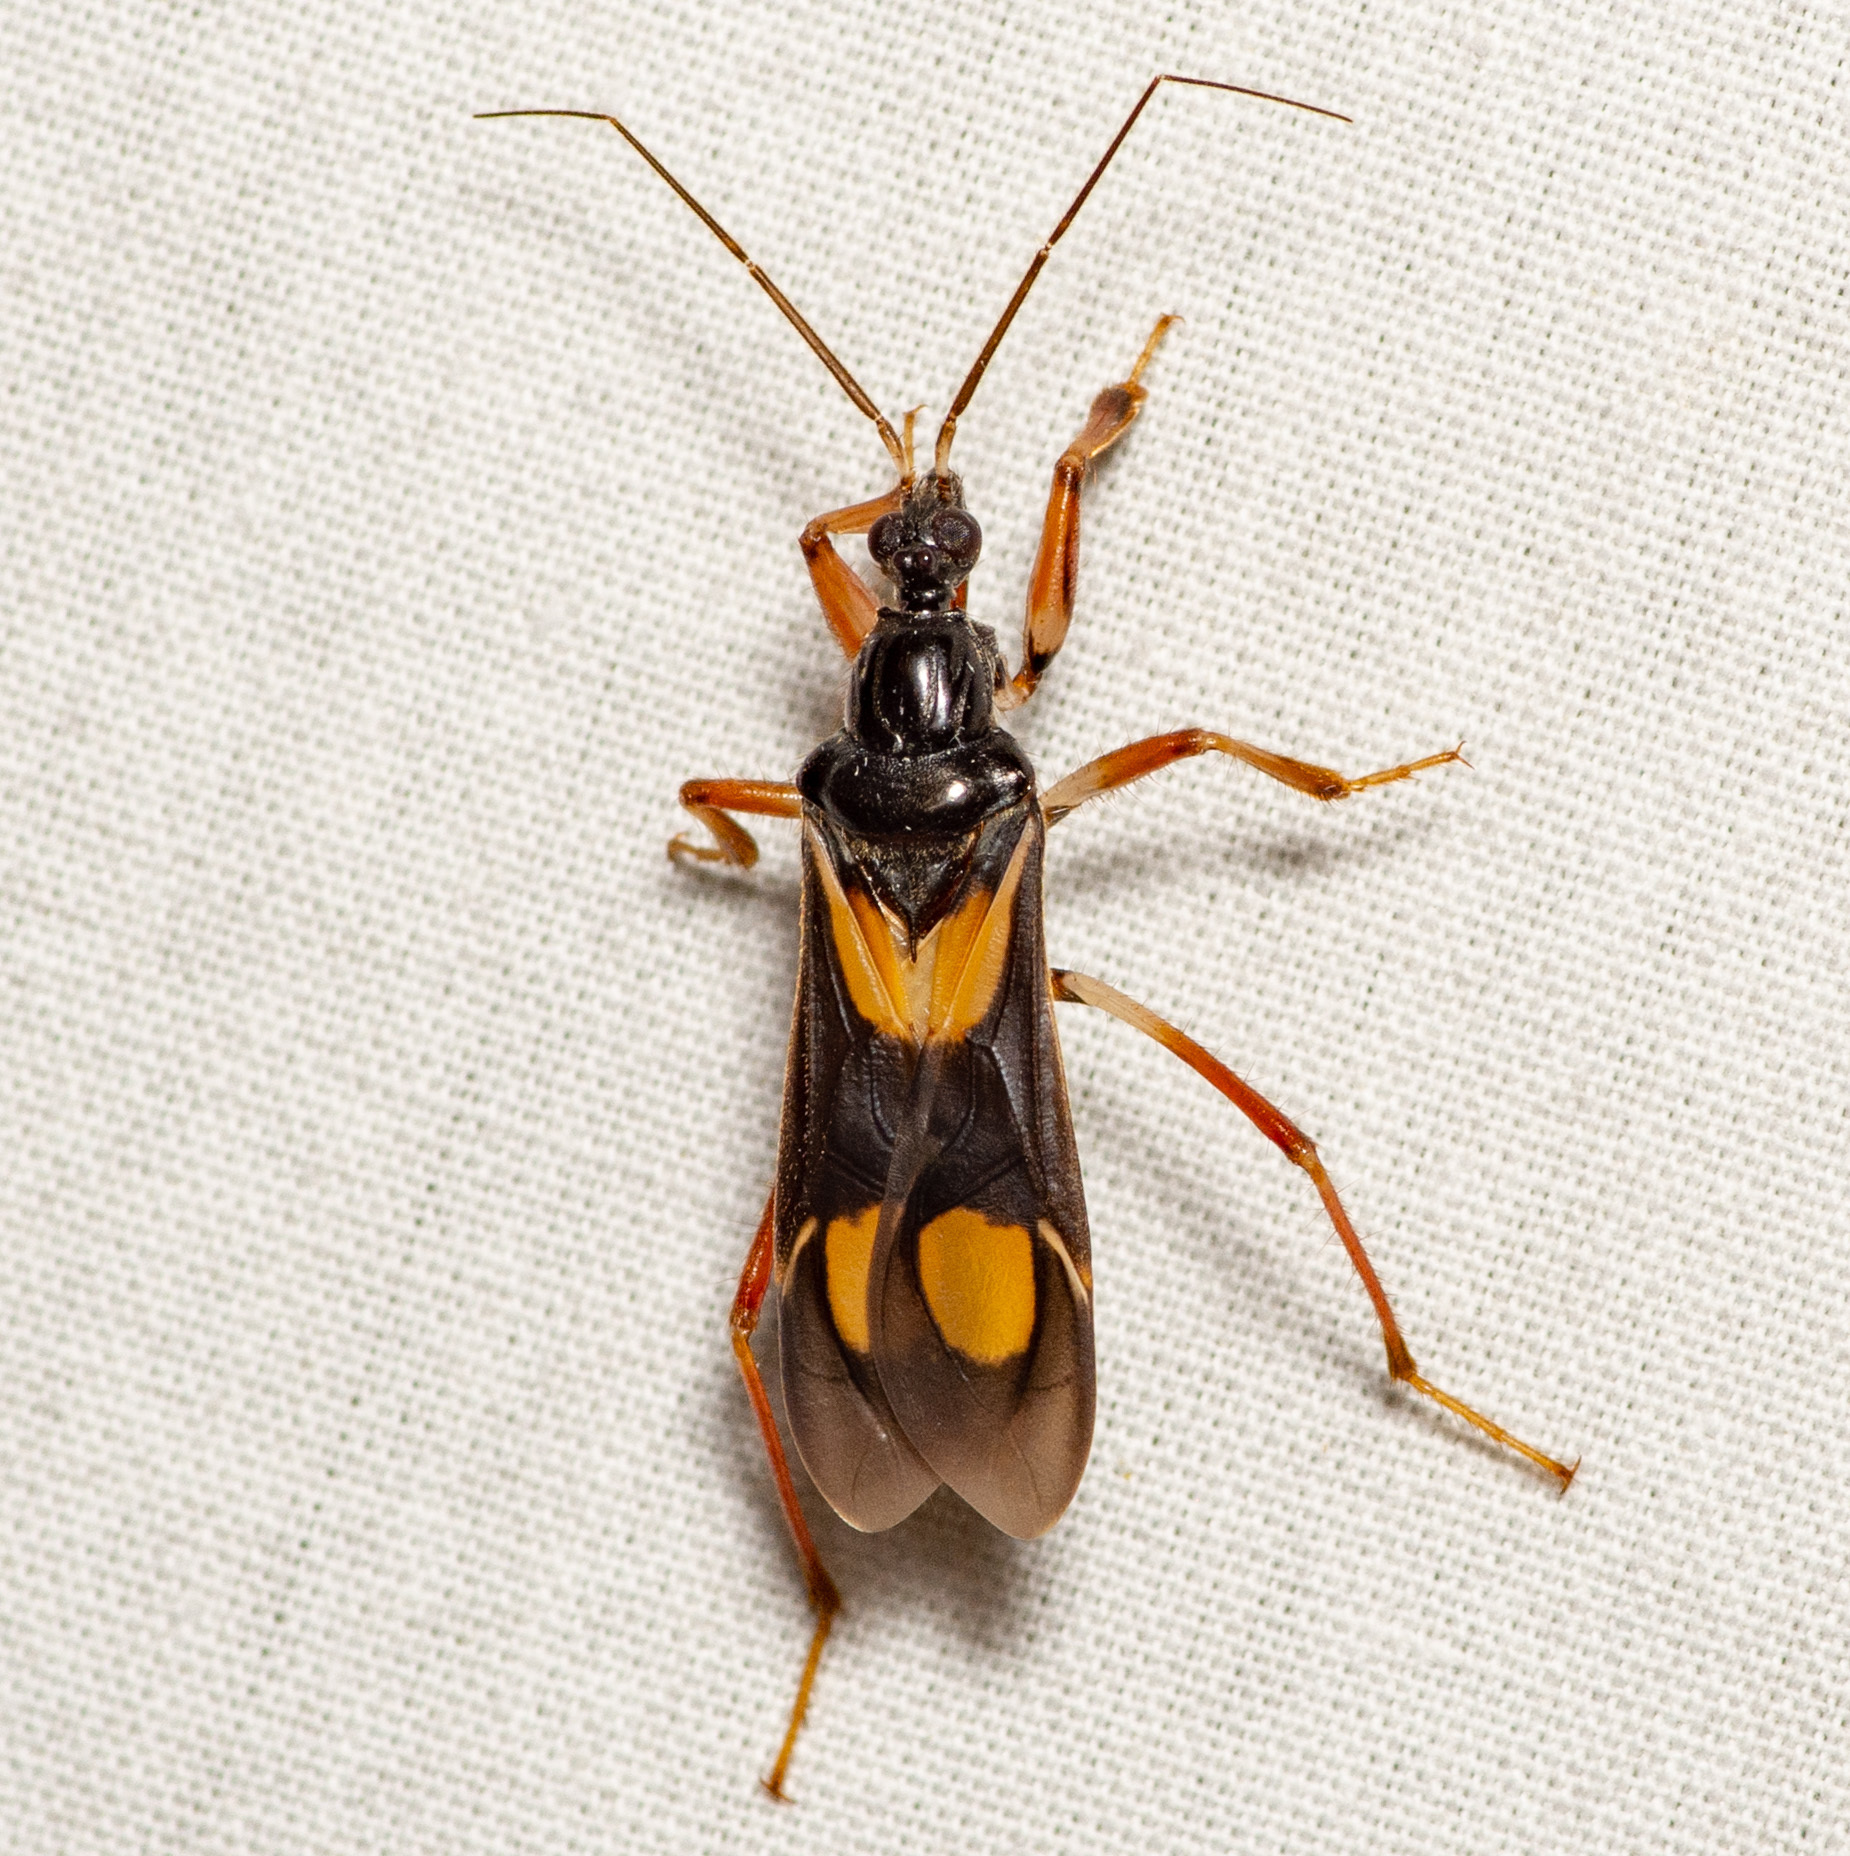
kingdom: Animalia
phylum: Arthropoda
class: Insecta
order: Hemiptera
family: Reduviidae
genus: Rasahus
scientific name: Rasahus hamatus
